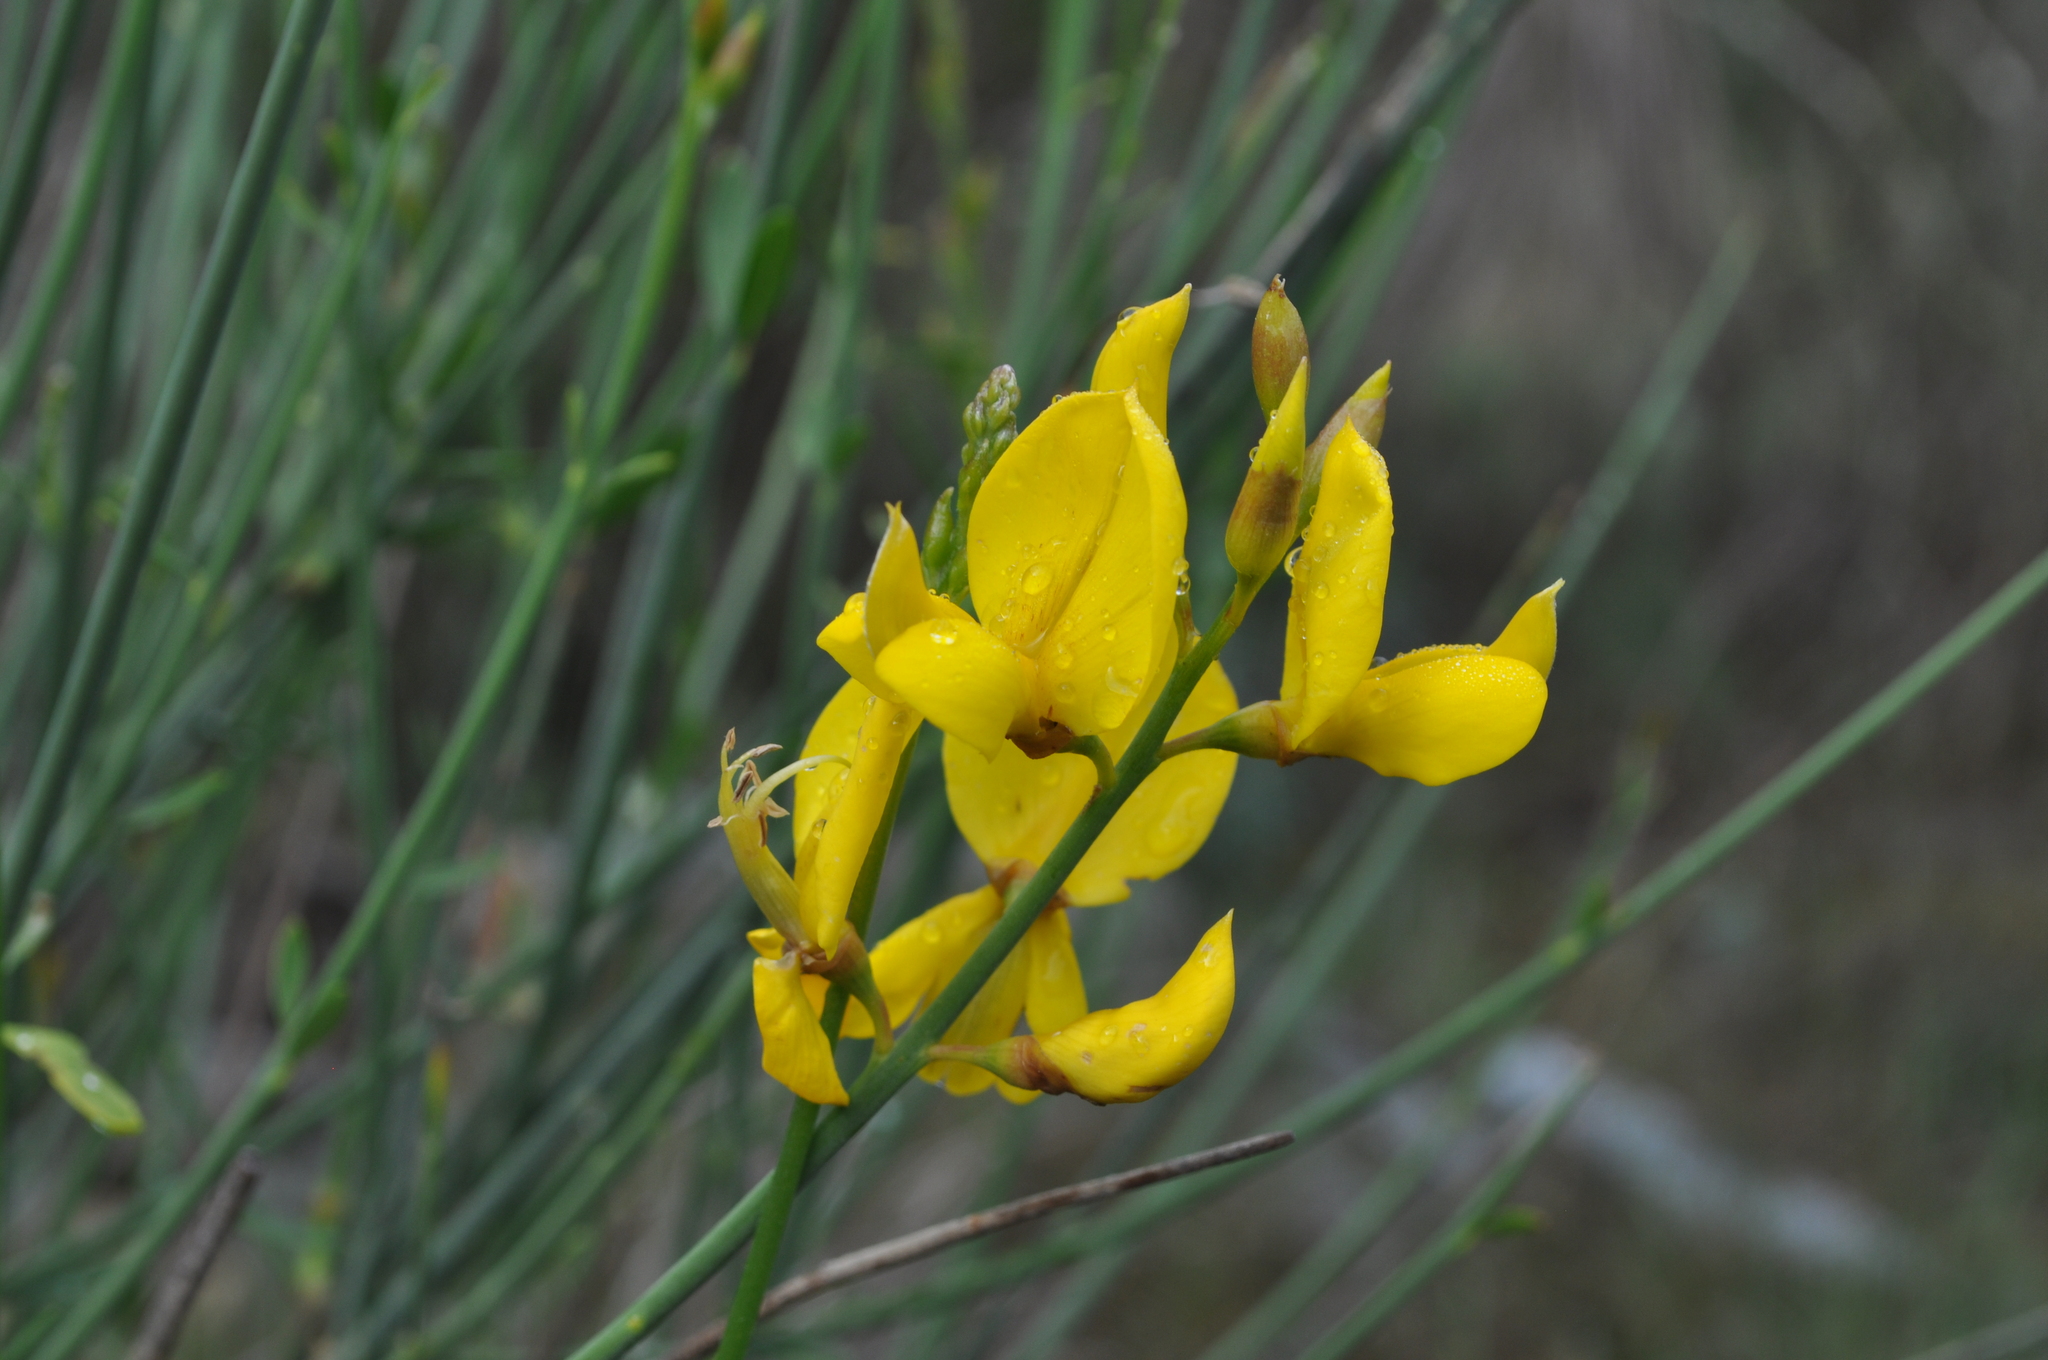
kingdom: Plantae
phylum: Tracheophyta
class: Magnoliopsida
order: Fabales
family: Fabaceae
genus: Spartium
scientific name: Spartium junceum
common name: Spanish broom
